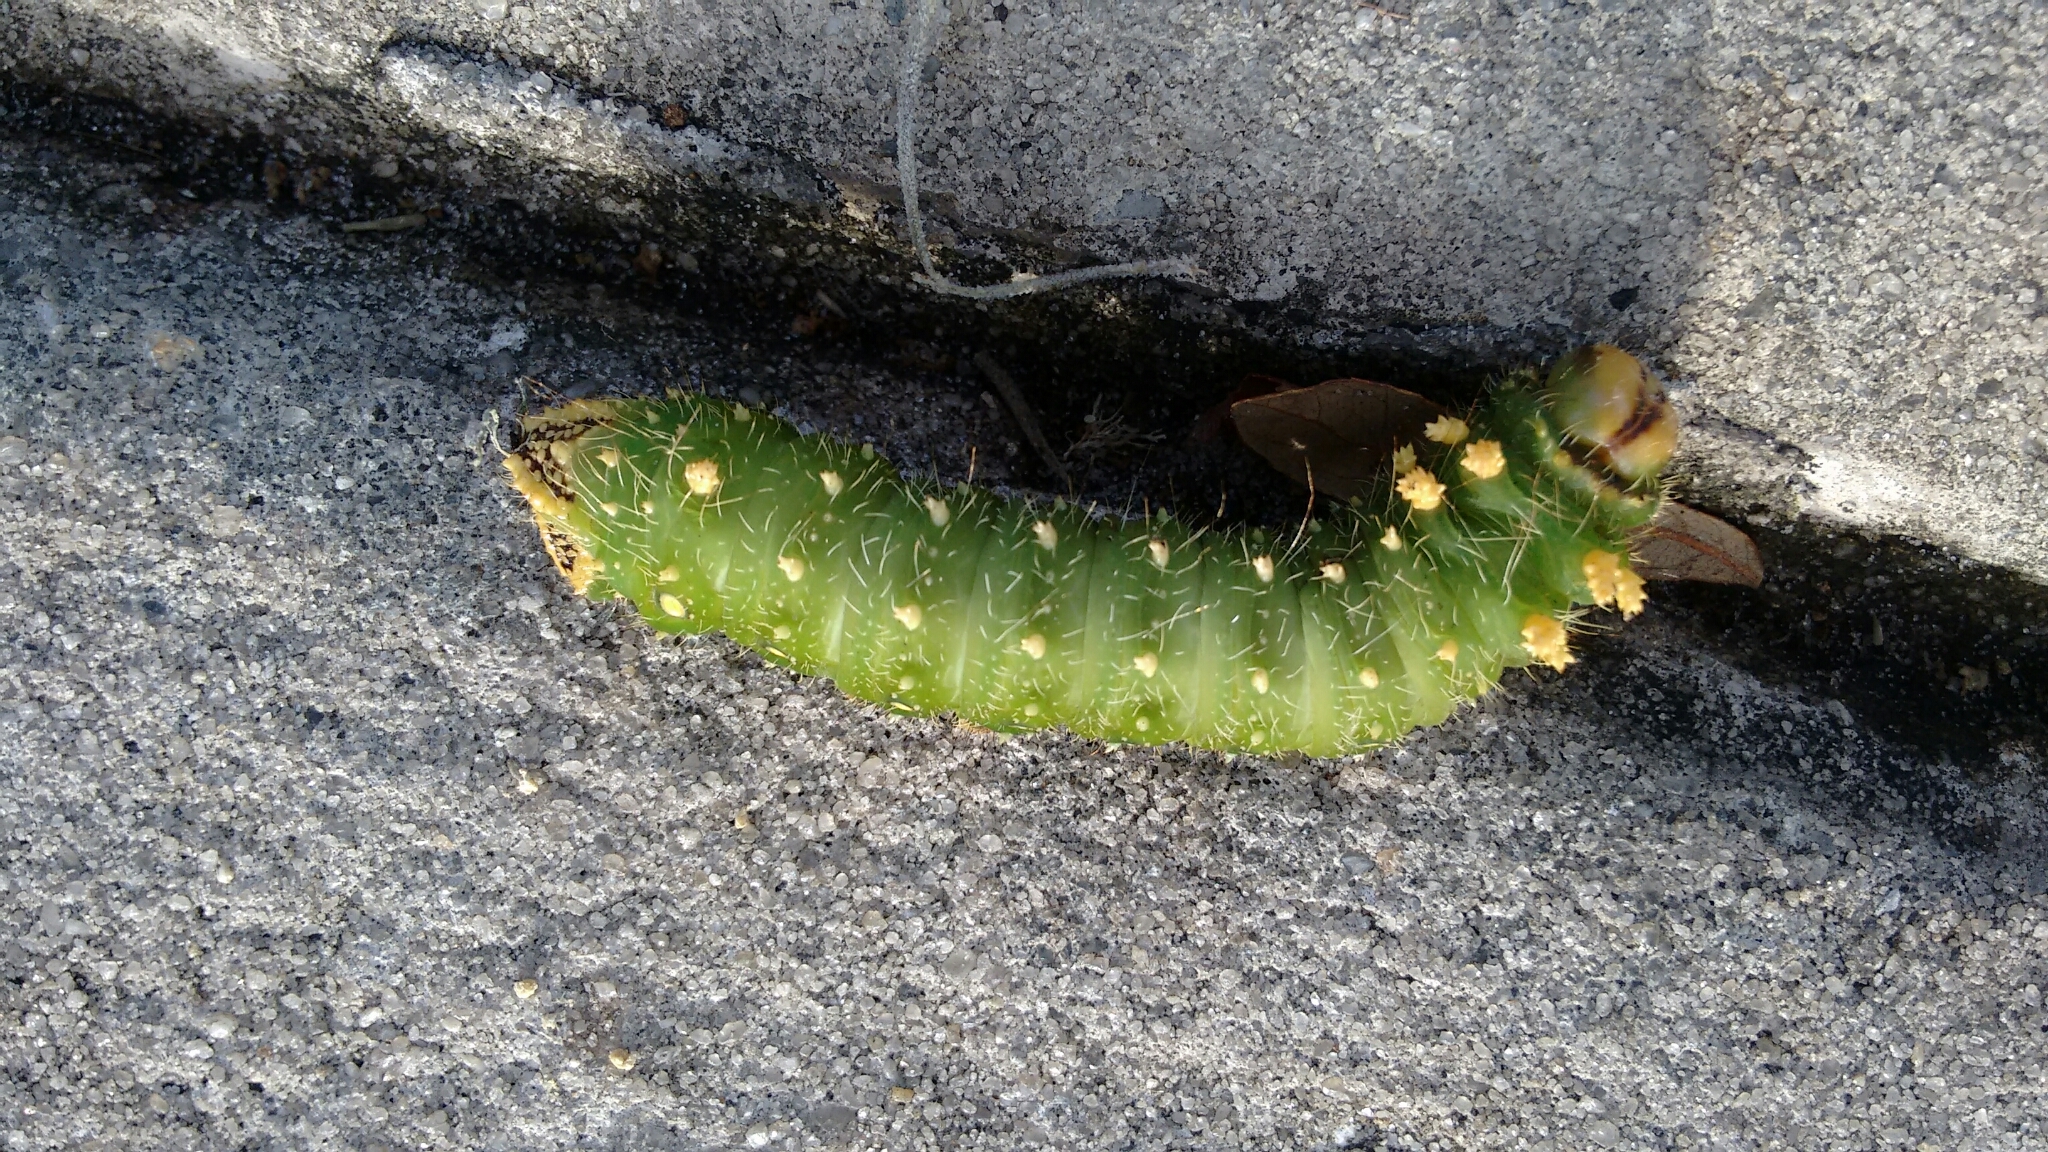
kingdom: Animalia
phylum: Arthropoda
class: Insecta
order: Lepidoptera
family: Saturniidae
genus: Eacles
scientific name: Eacles imperialis
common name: Imperial moth
